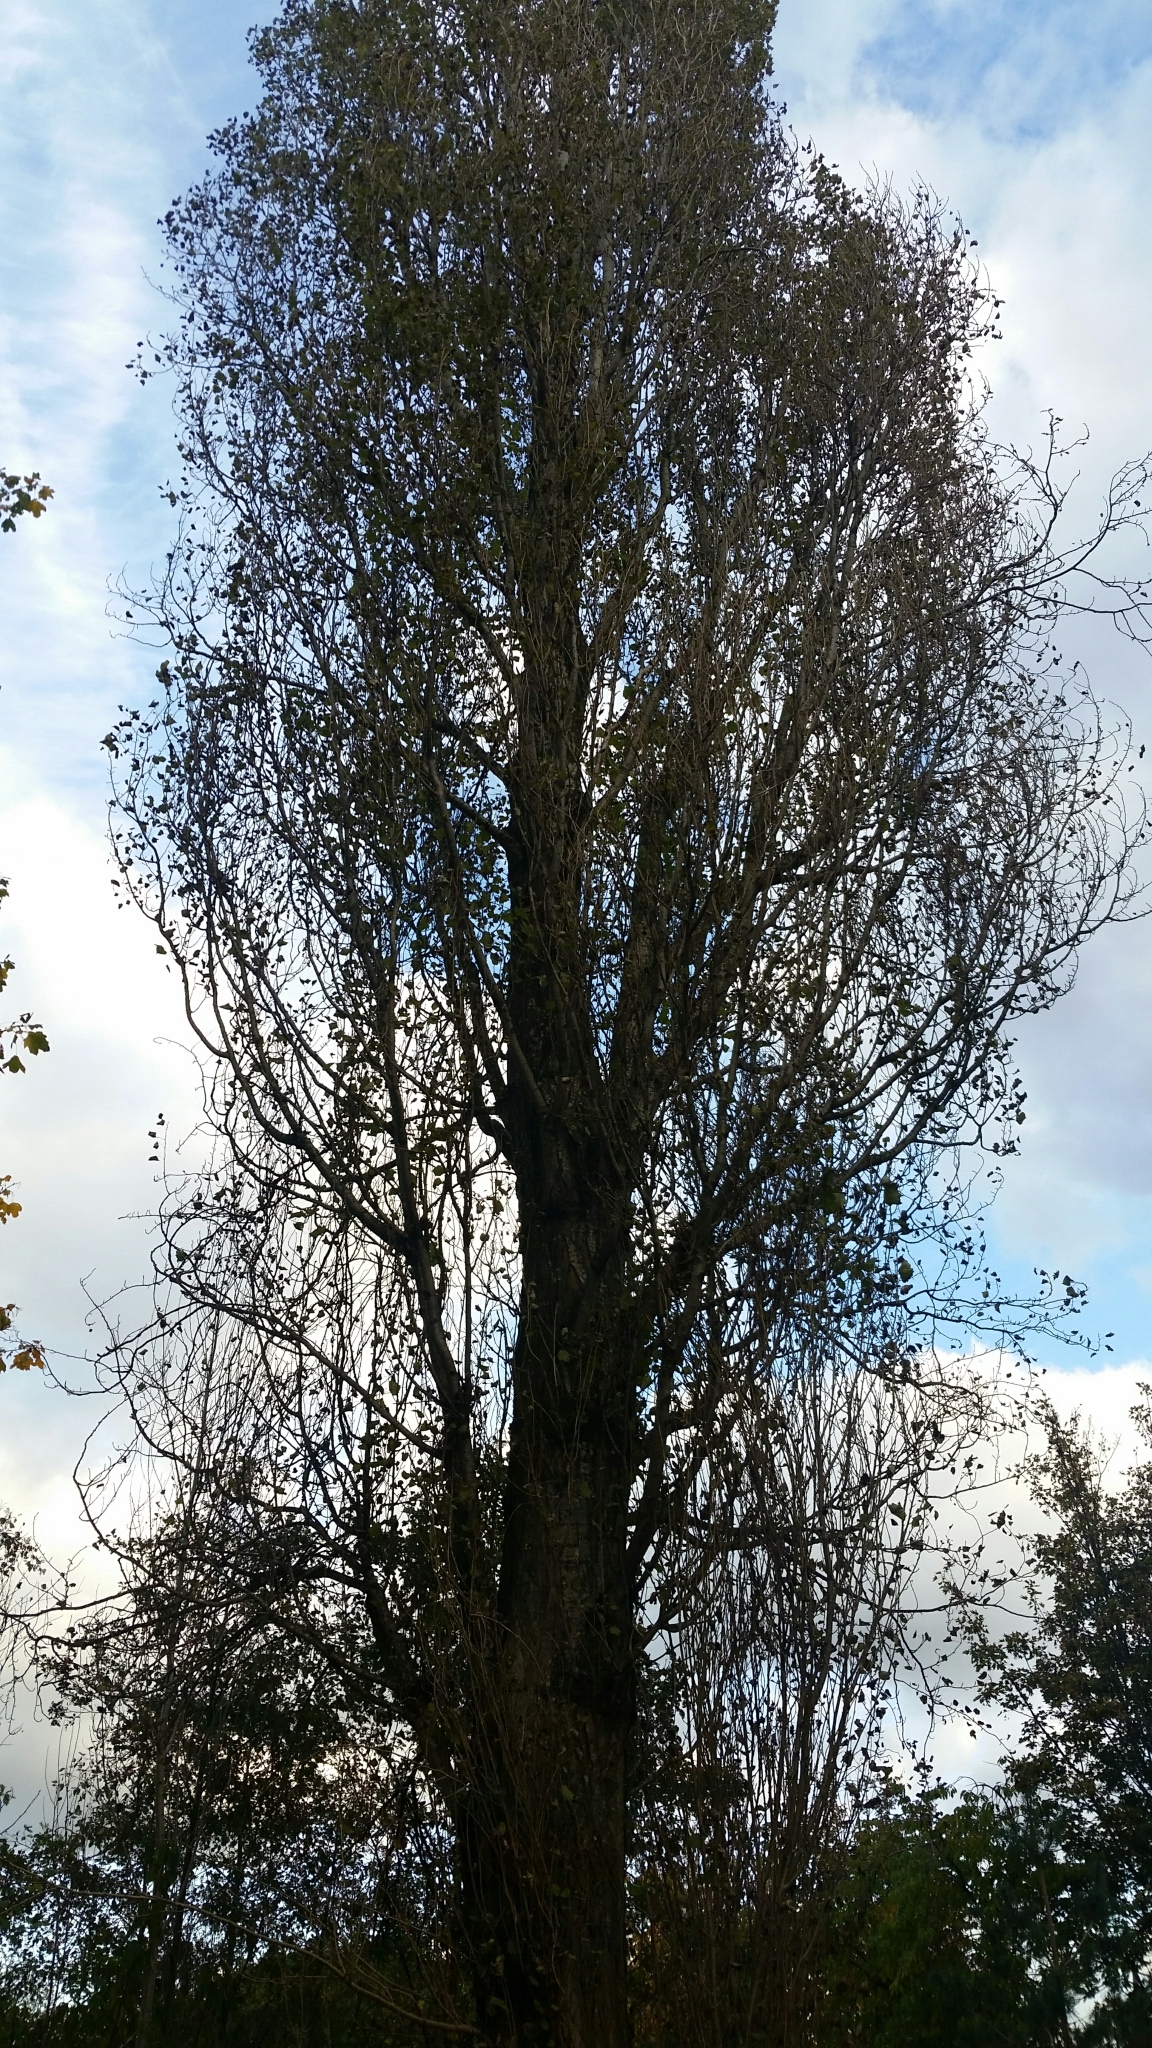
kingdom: Plantae
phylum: Tracheophyta
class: Magnoliopsida
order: Malpighiales
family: Salicaceae
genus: Populus
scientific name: Populus nigra
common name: Black poplar
